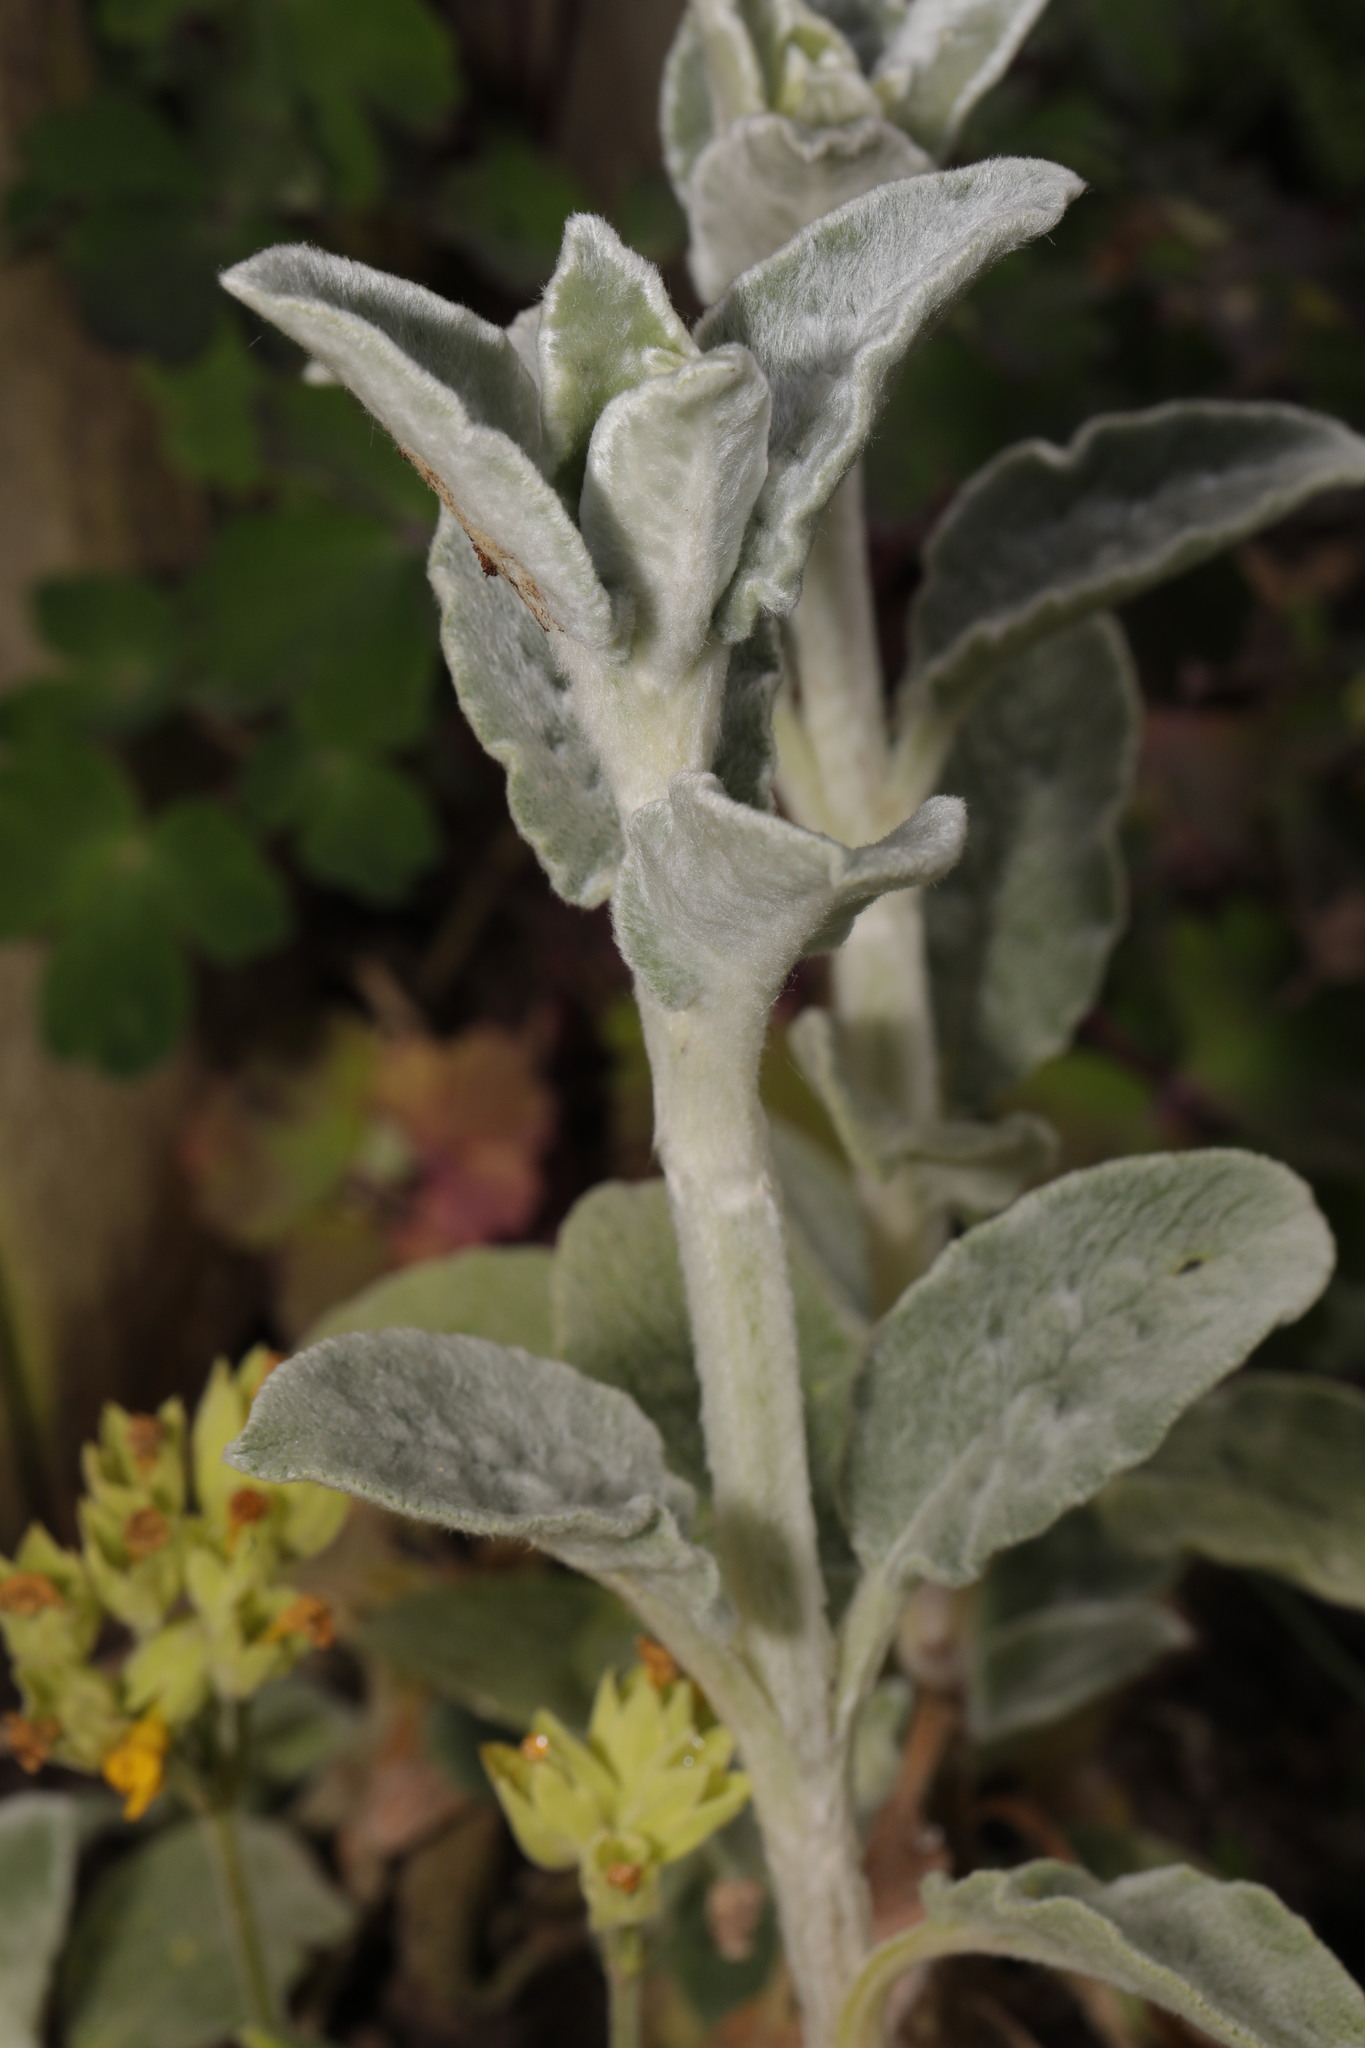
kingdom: Plantae
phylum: Tracheophyta
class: Magnoliopsida
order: Lamiales
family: Lamiaceae
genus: Stachys
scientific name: Stachys byzantina
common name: Lamb's-ear
